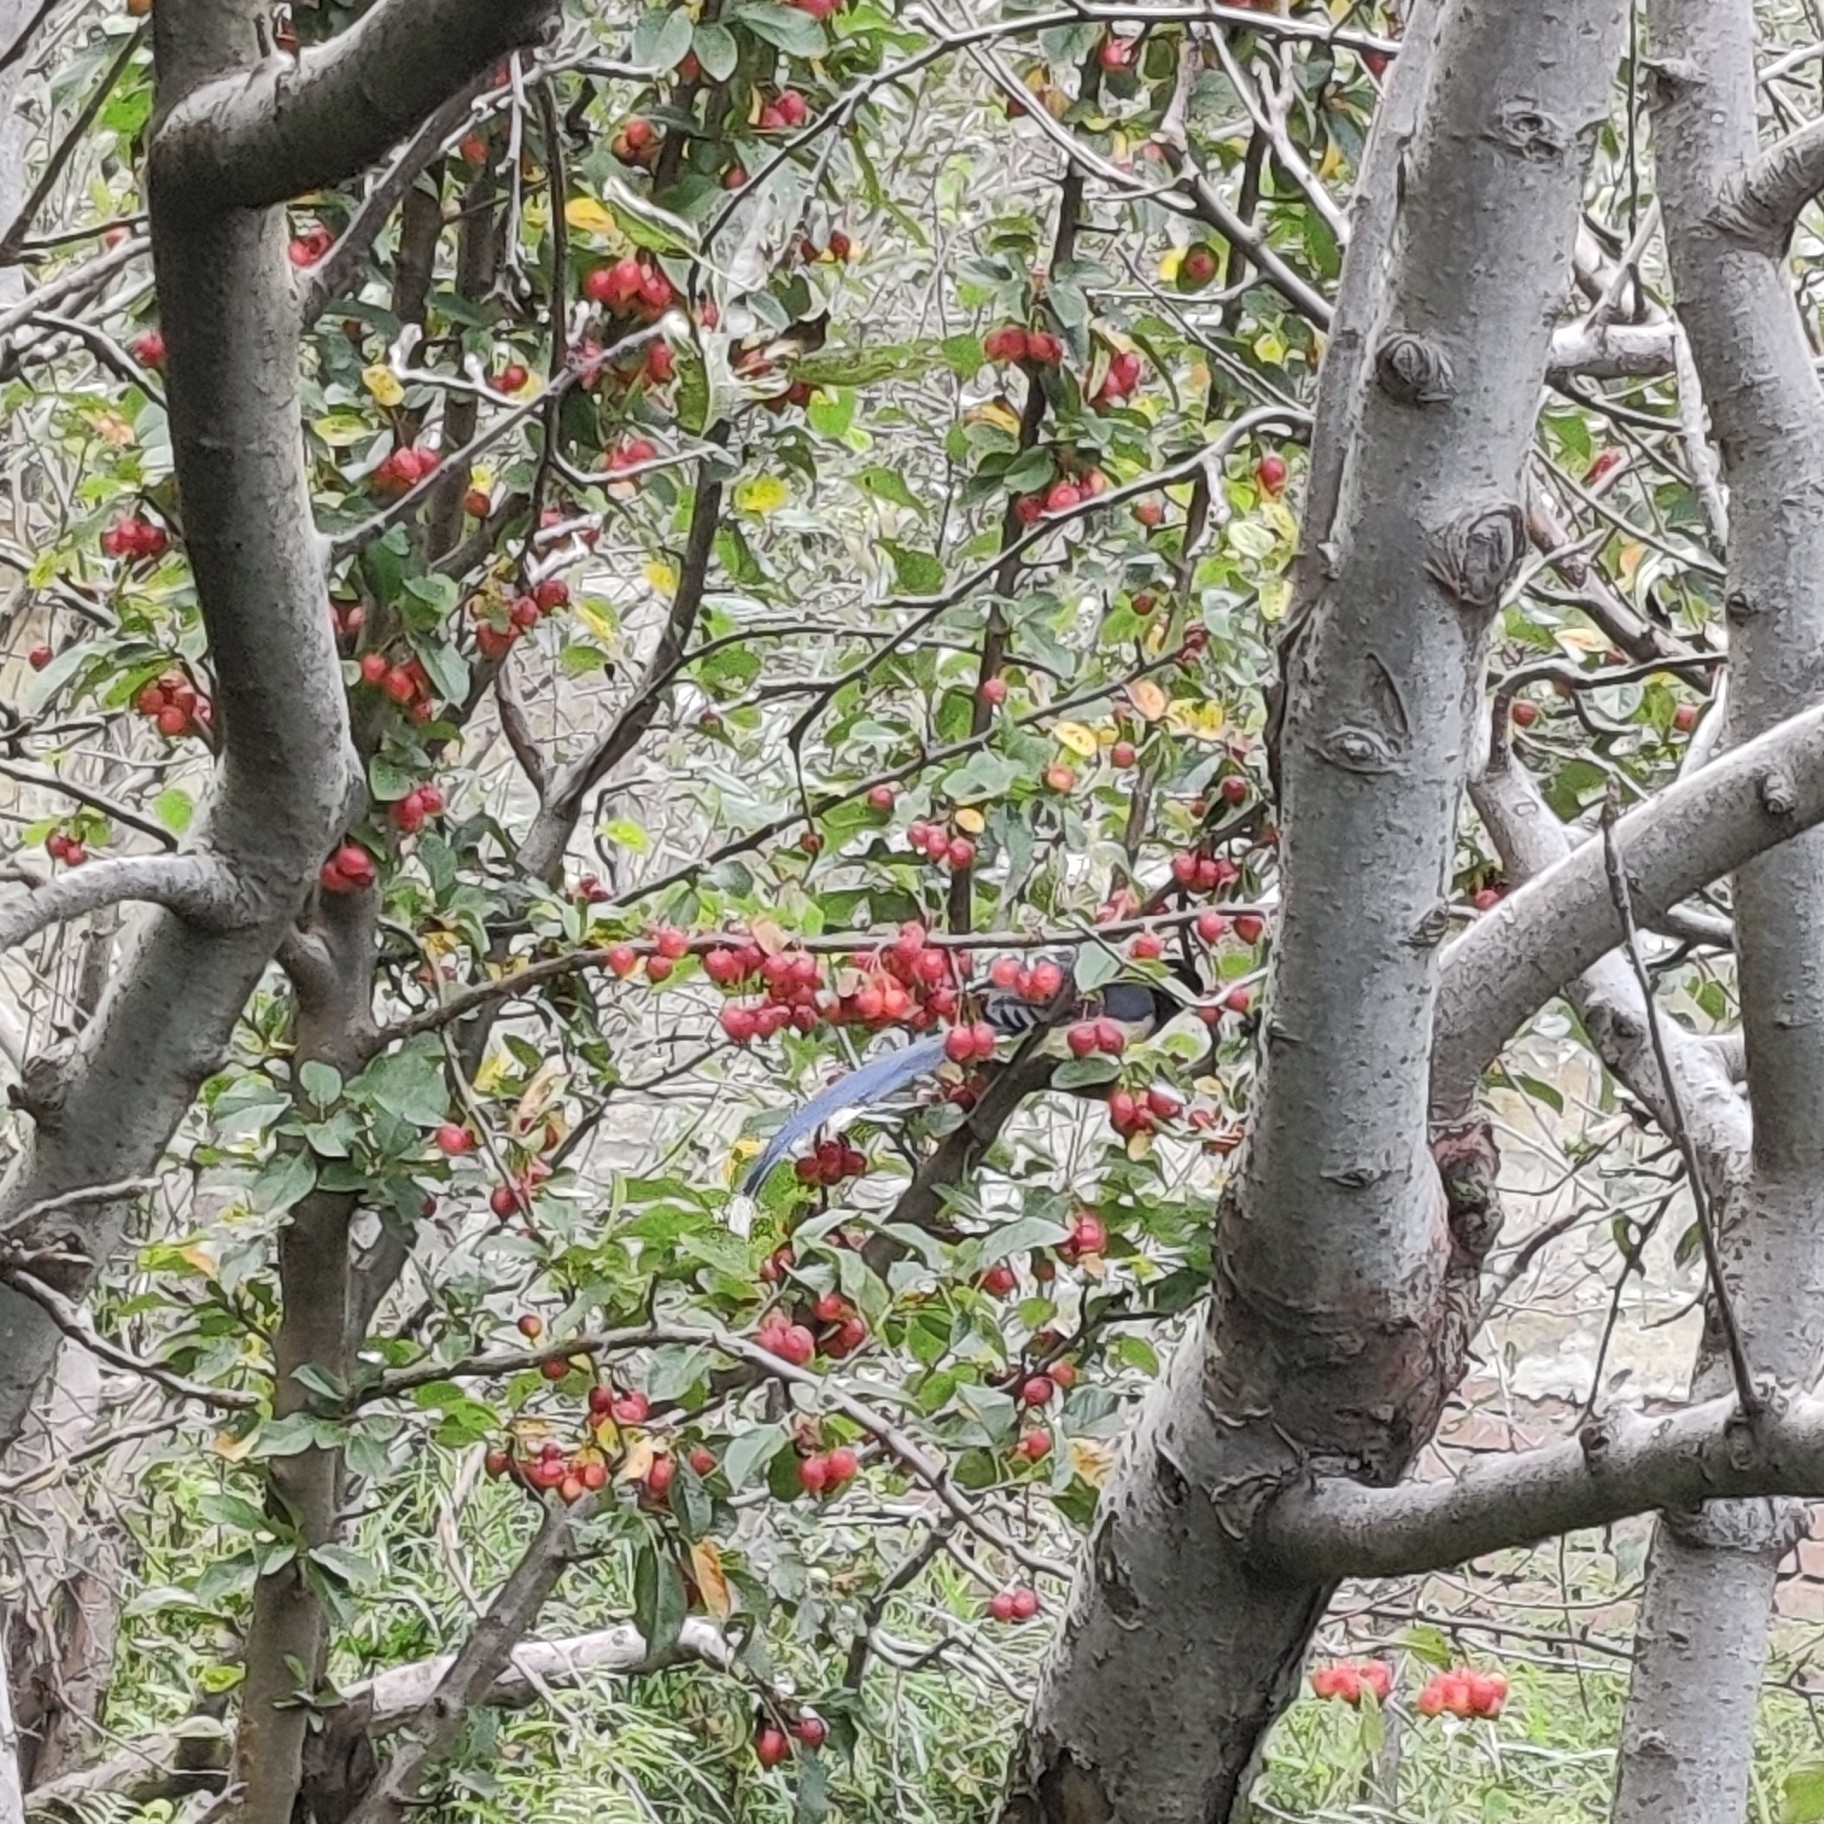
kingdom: Animalia
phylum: Chordata
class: Aves
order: Passeriformes
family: Corvidae
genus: Urocissa
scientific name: Urocissa flavirostris
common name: Yellow-billed blue magpie
